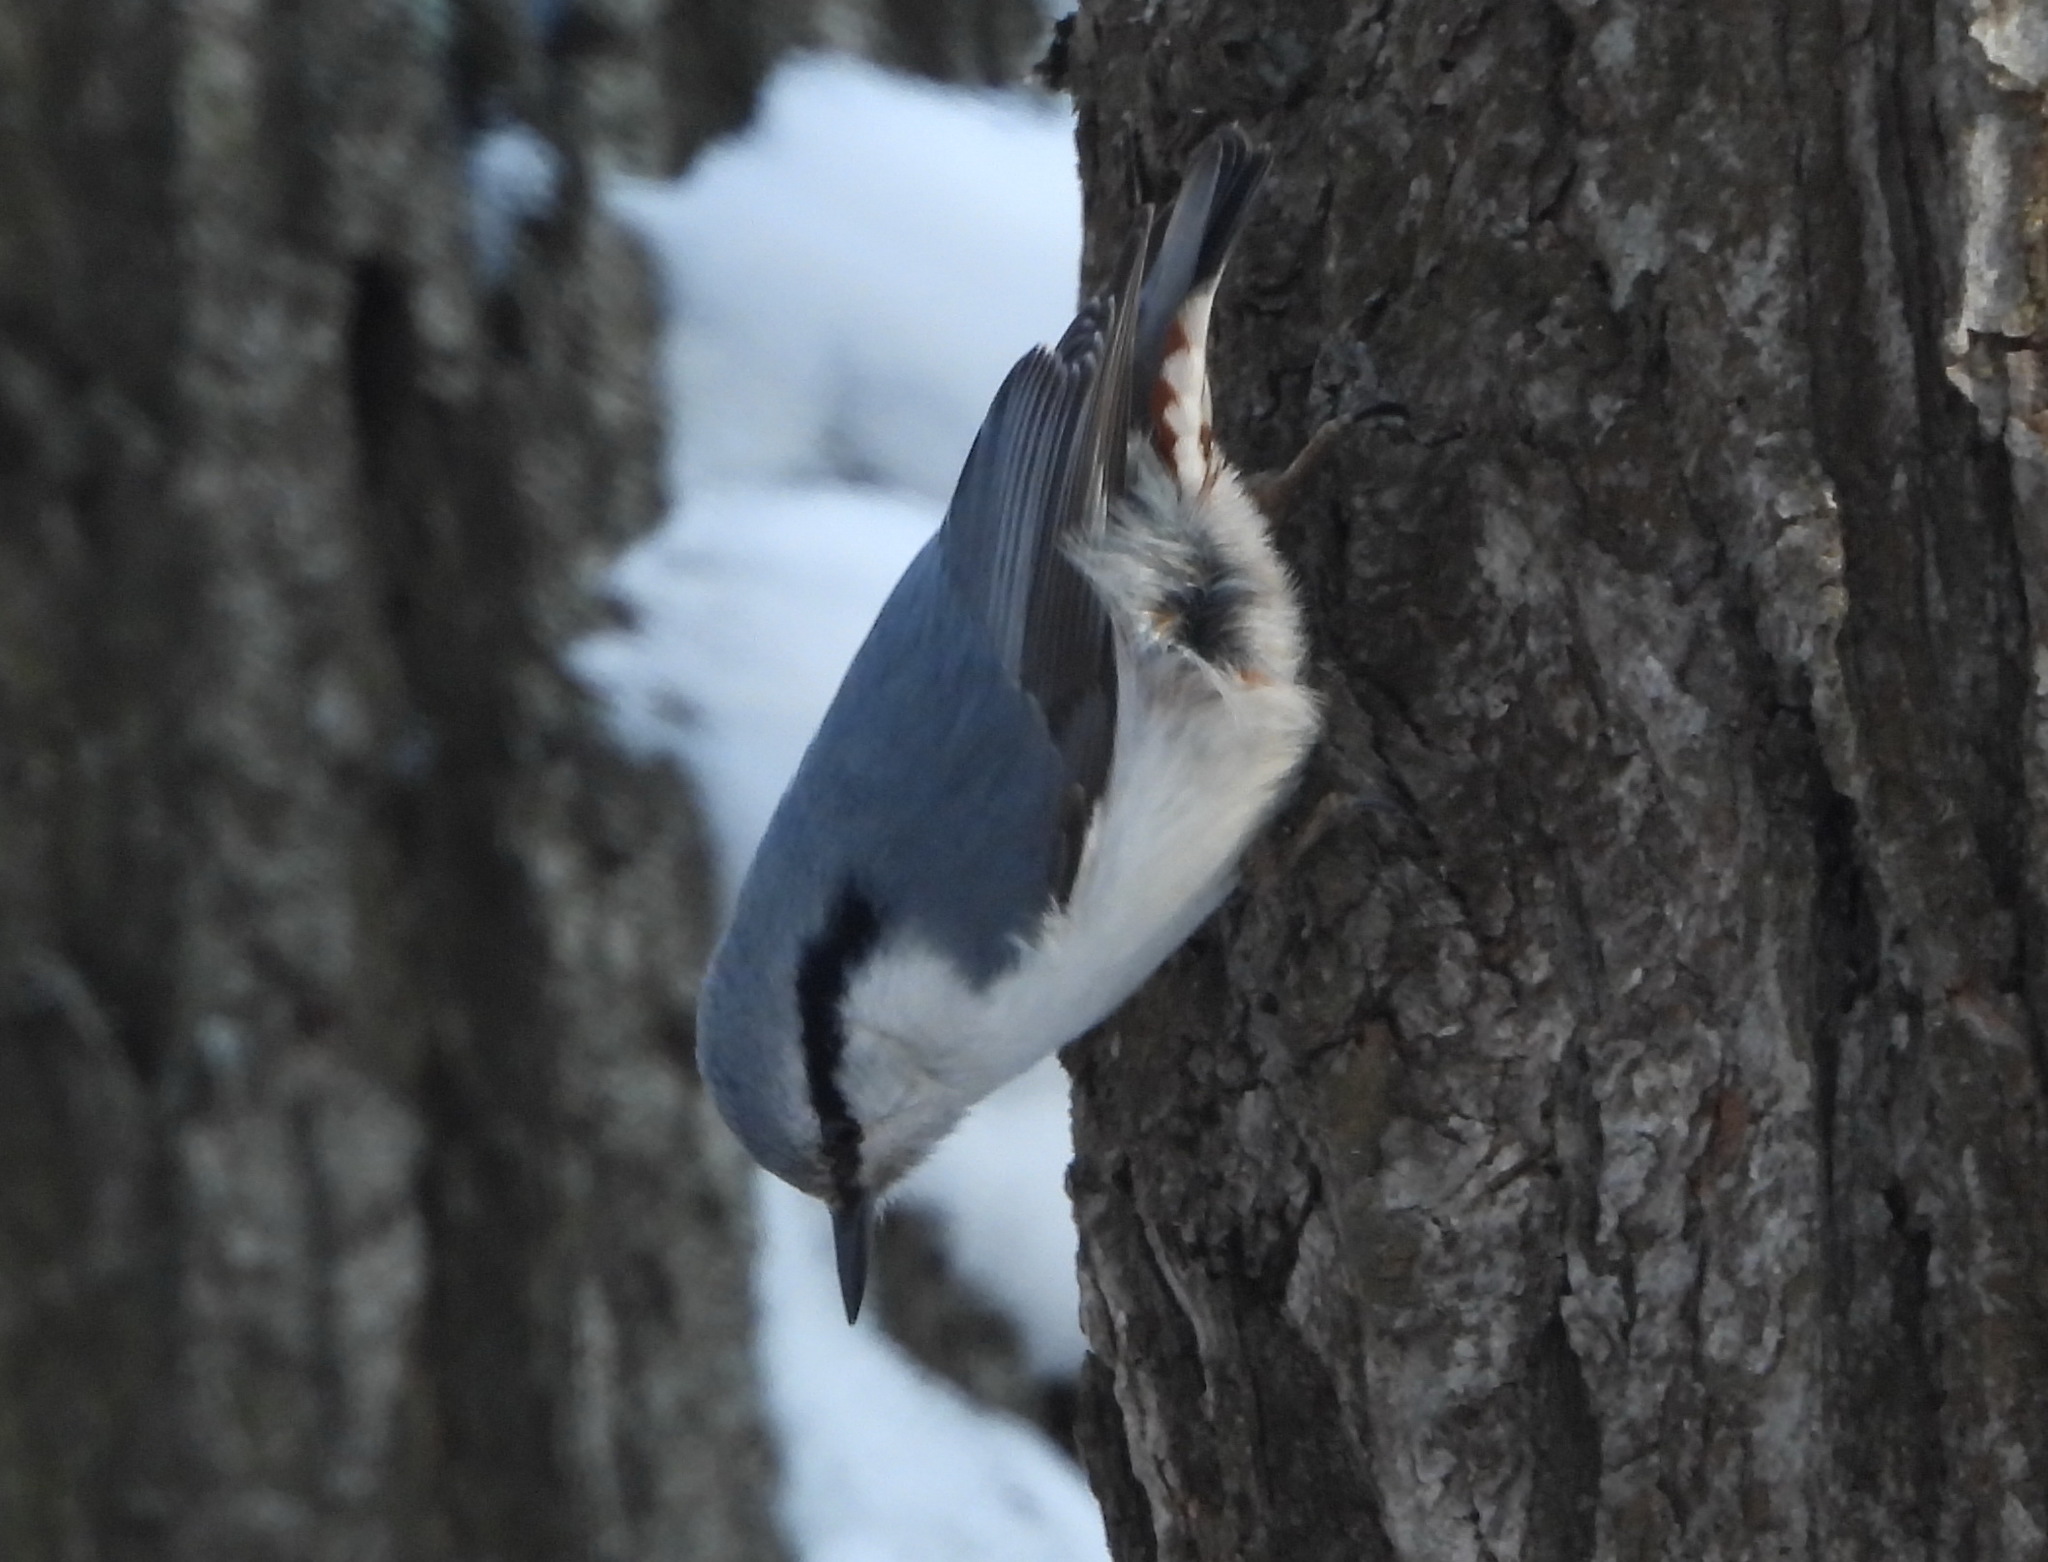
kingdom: Animalia
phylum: Chordata
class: Aves
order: Passeriformes
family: Sittidae
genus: Sitta
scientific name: Sitta europaea
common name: Eurasian nuthatch
